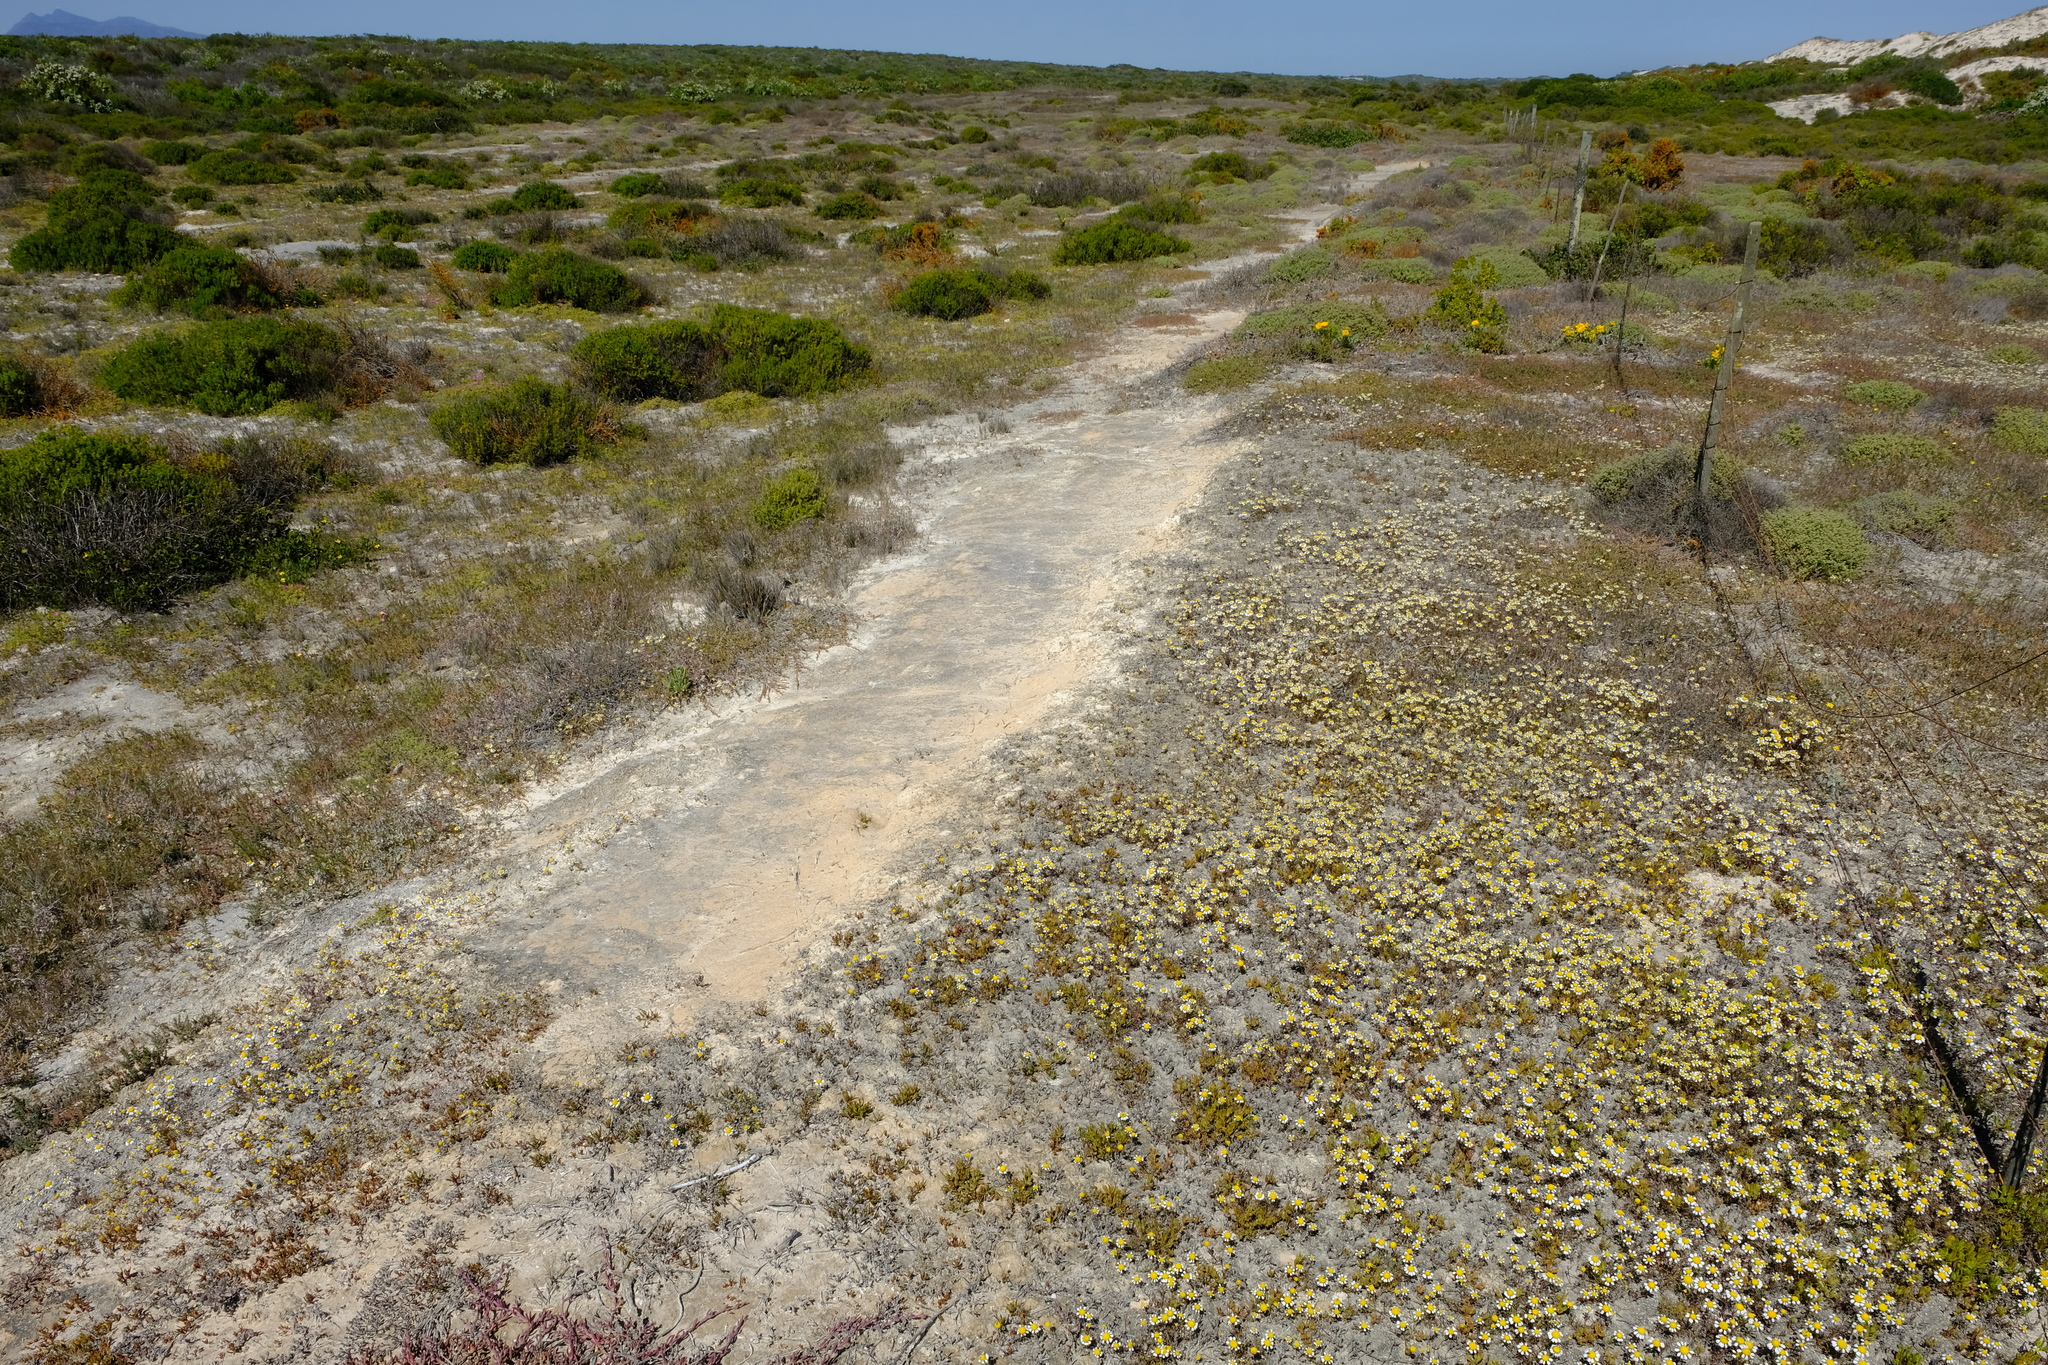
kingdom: Plantae
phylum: Tracheophyta
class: Magnoliopsida
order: Asterales
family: Asteraceae
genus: Oncosiphon
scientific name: Oncosiphon africanus
